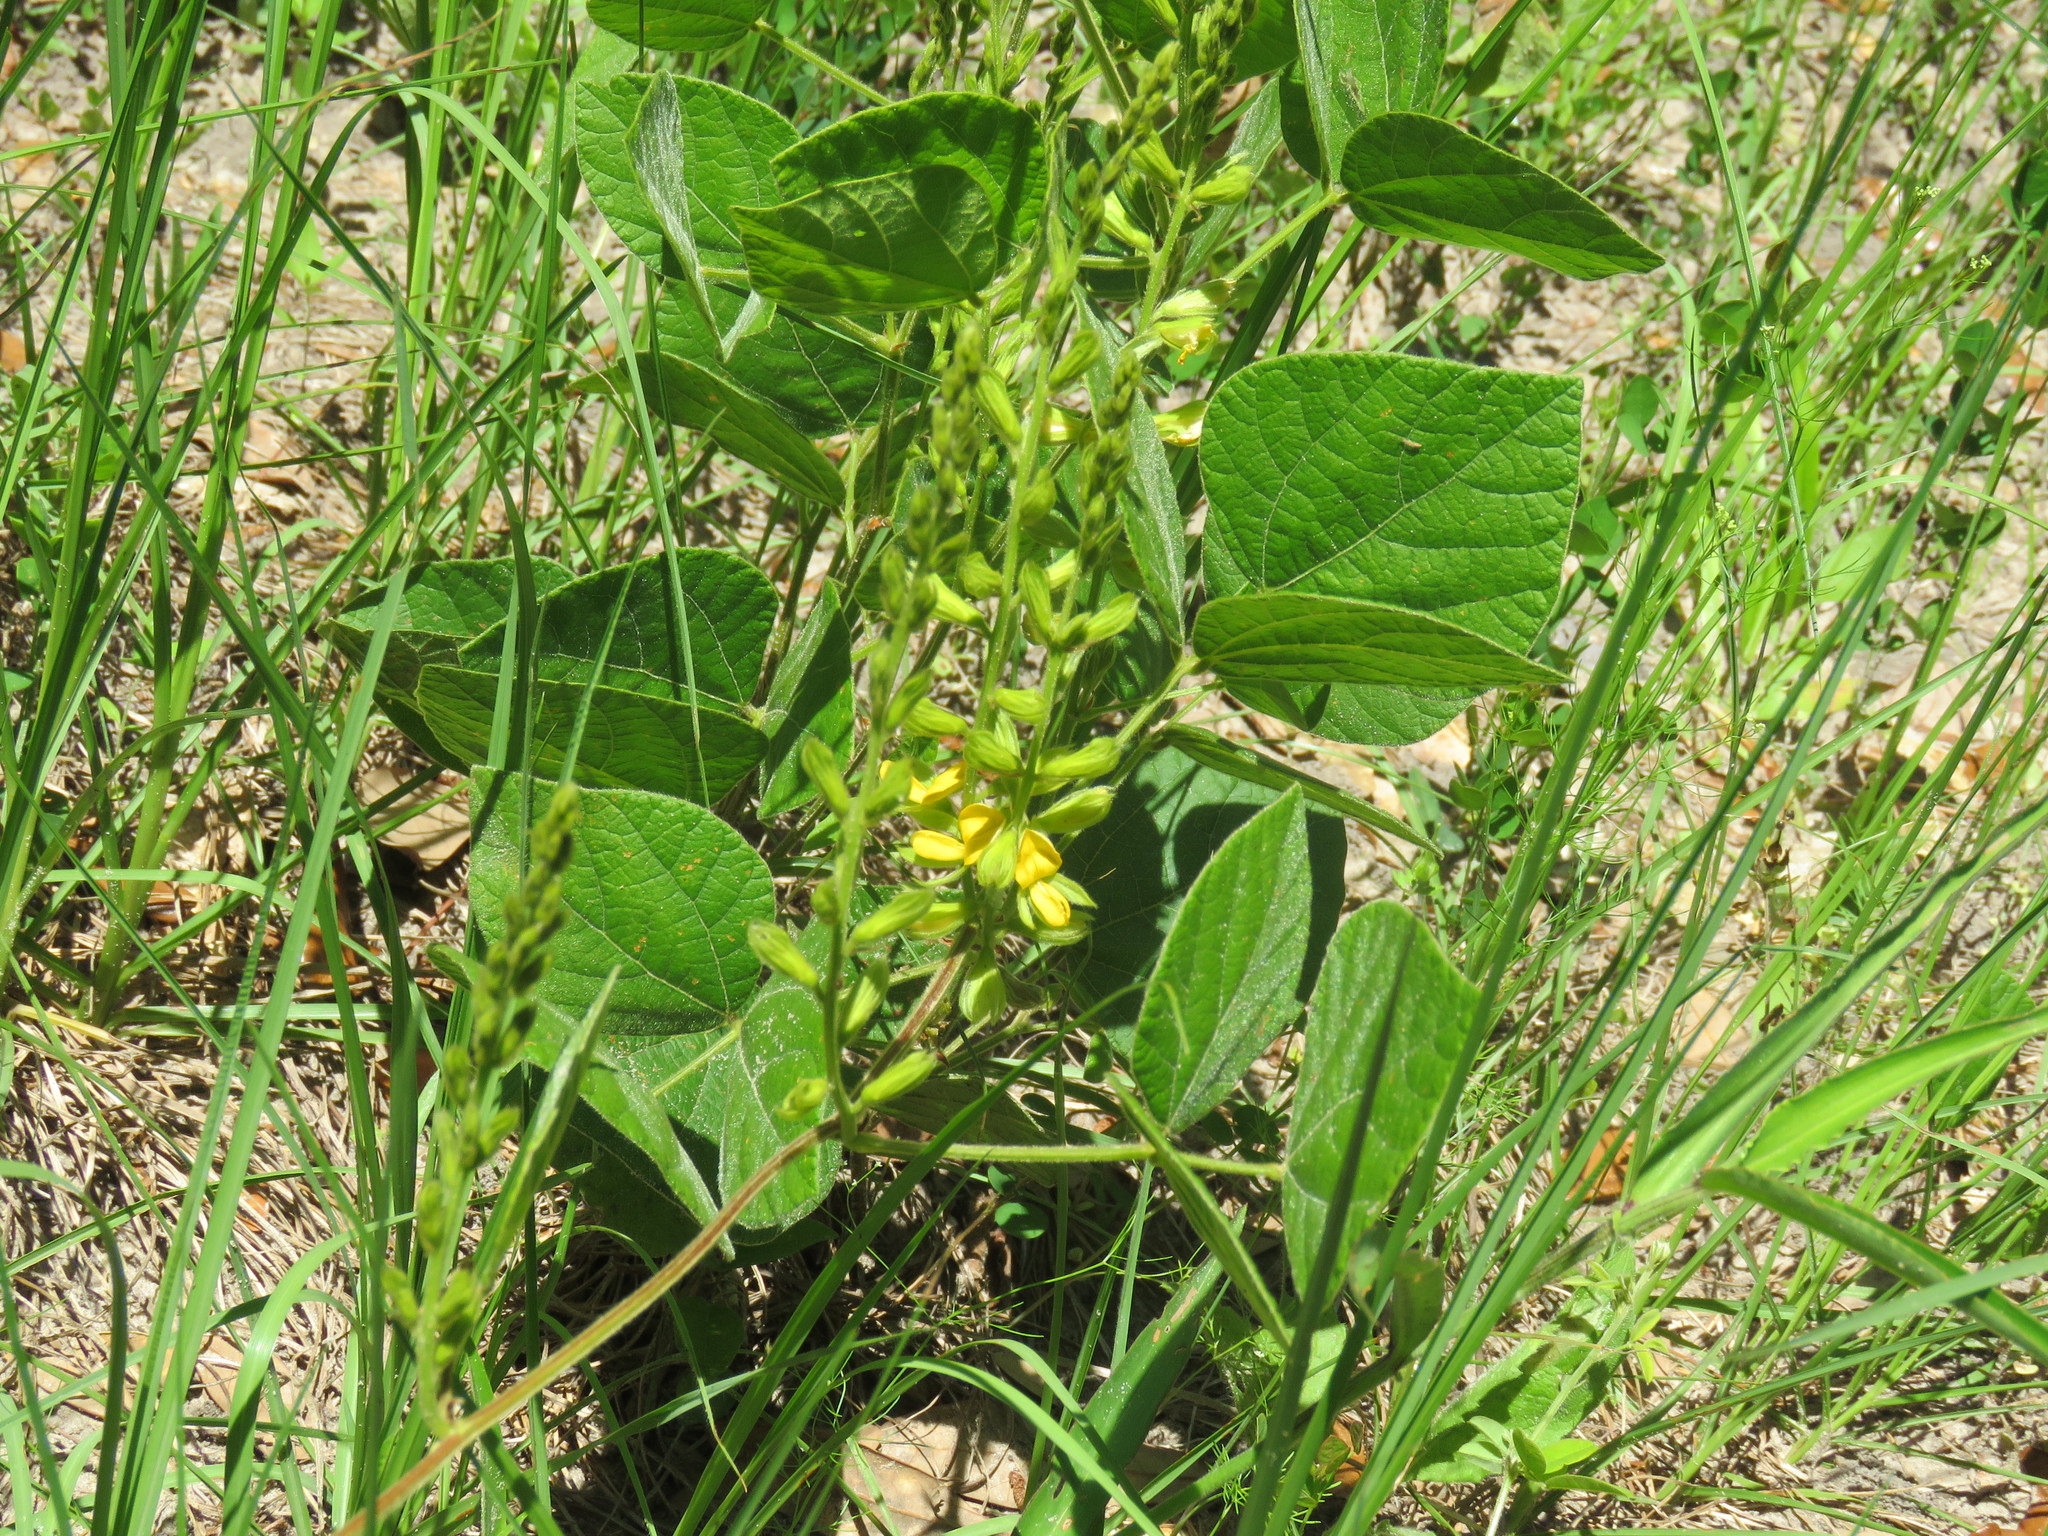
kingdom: Plantae
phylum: Tracheophyta
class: Magnoliopsida
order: Fabales
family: Fabaceae
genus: Rhynchosia
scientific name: Rhynchosia latifolia
